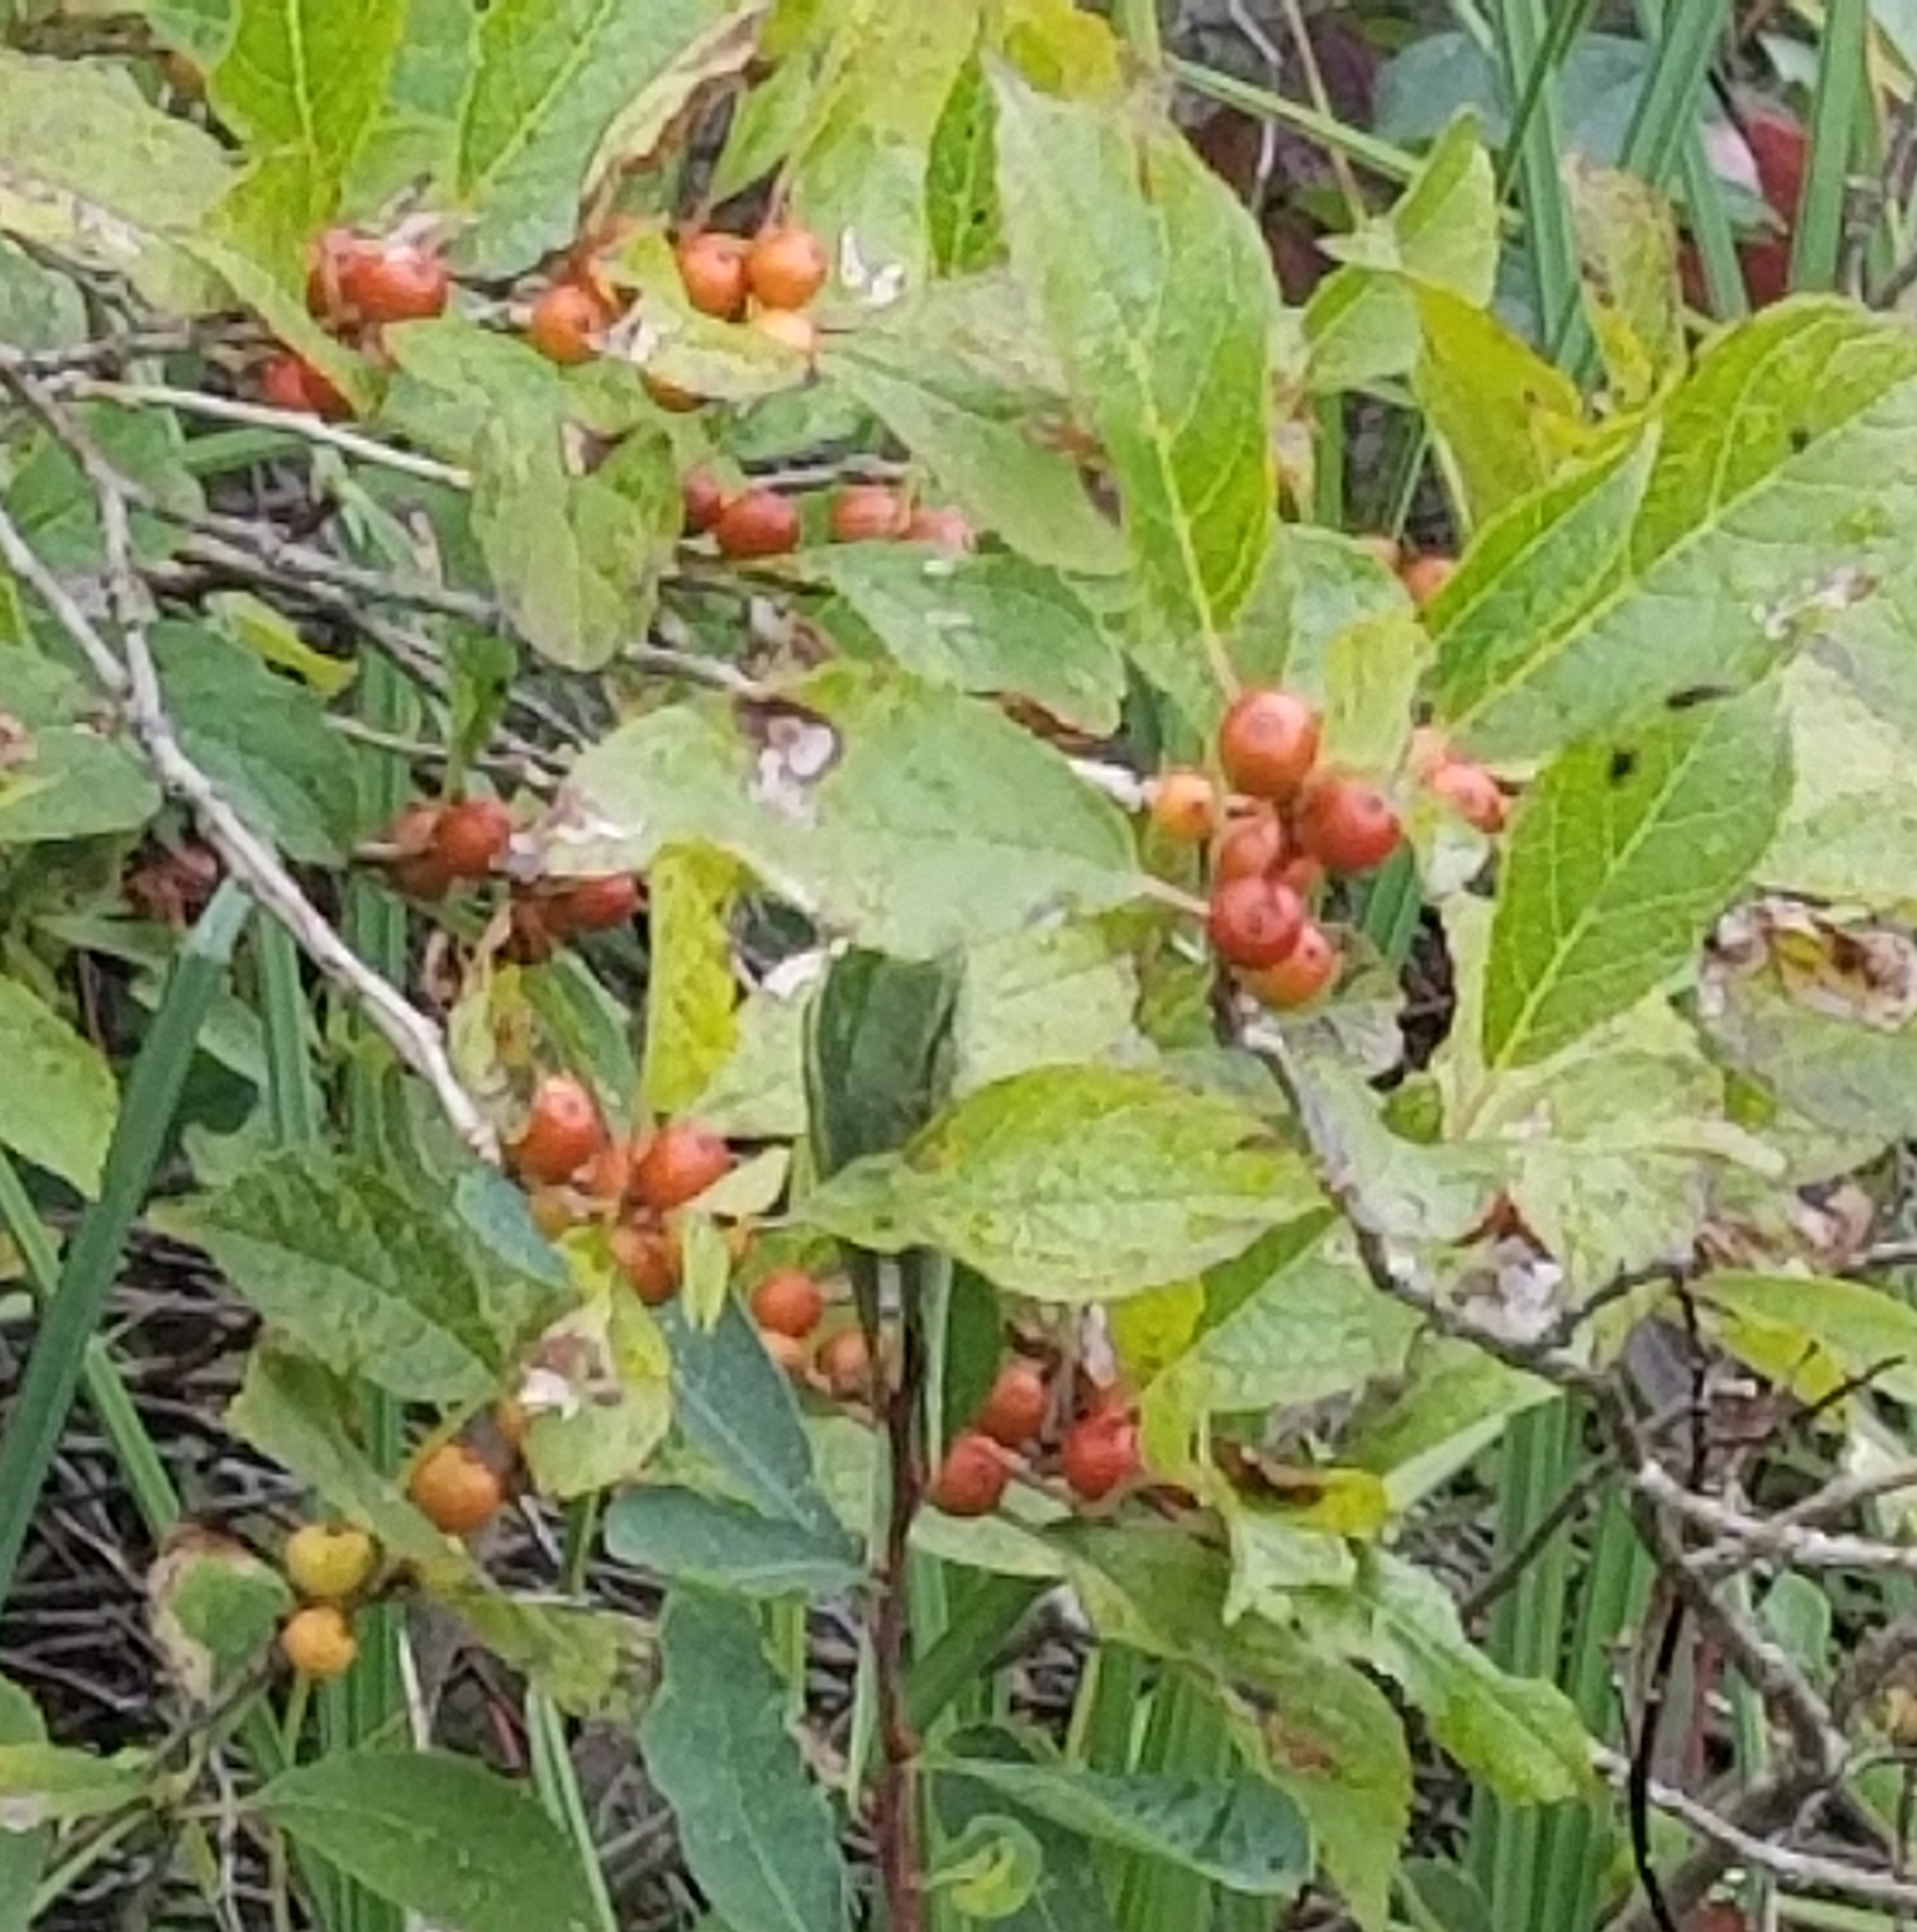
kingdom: Plantae
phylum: Tracheophyta
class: Magnoliopsida
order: Aquifoliales
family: Aquifoliaceae
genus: Ilex
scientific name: Ilex verticillata
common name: Virginia winterberry
